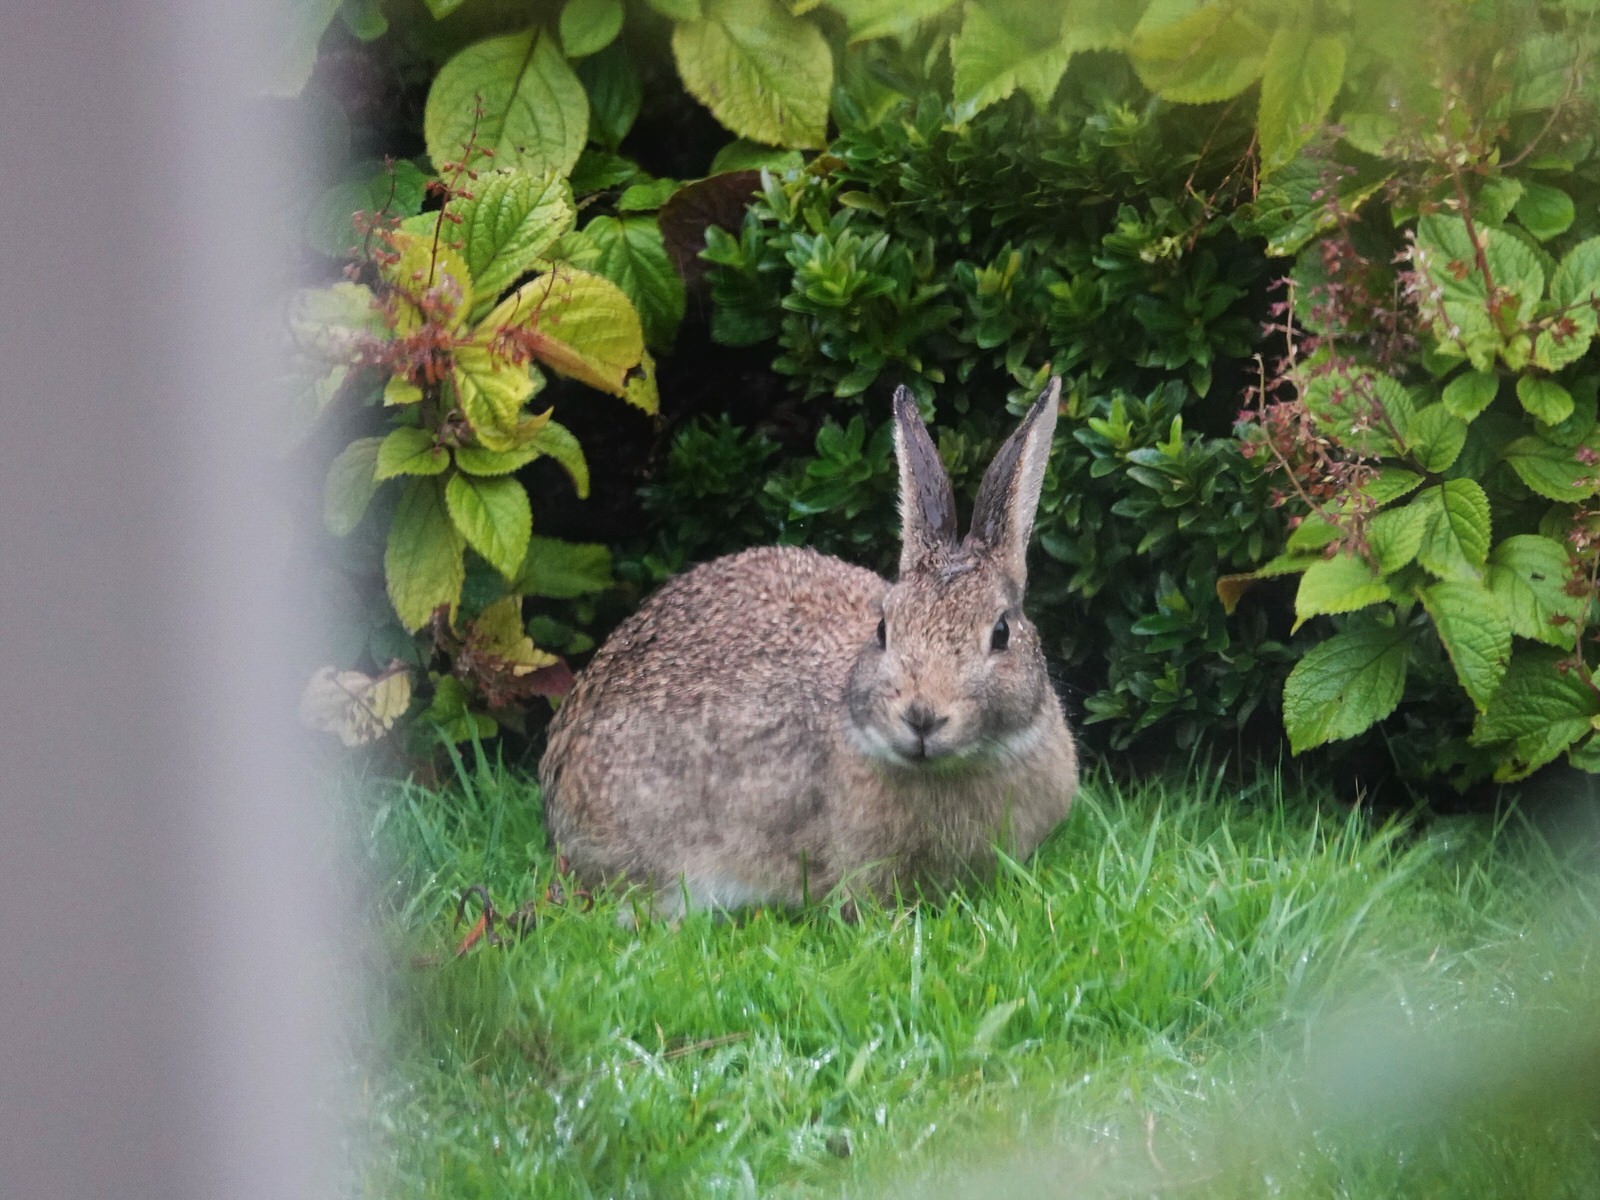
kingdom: Animalia
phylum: Chordata
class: Mammalia
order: Lagomorpha
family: Leporidae
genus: Oryctolagus
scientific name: Oryctolagus cuniculus
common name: European rabbit
